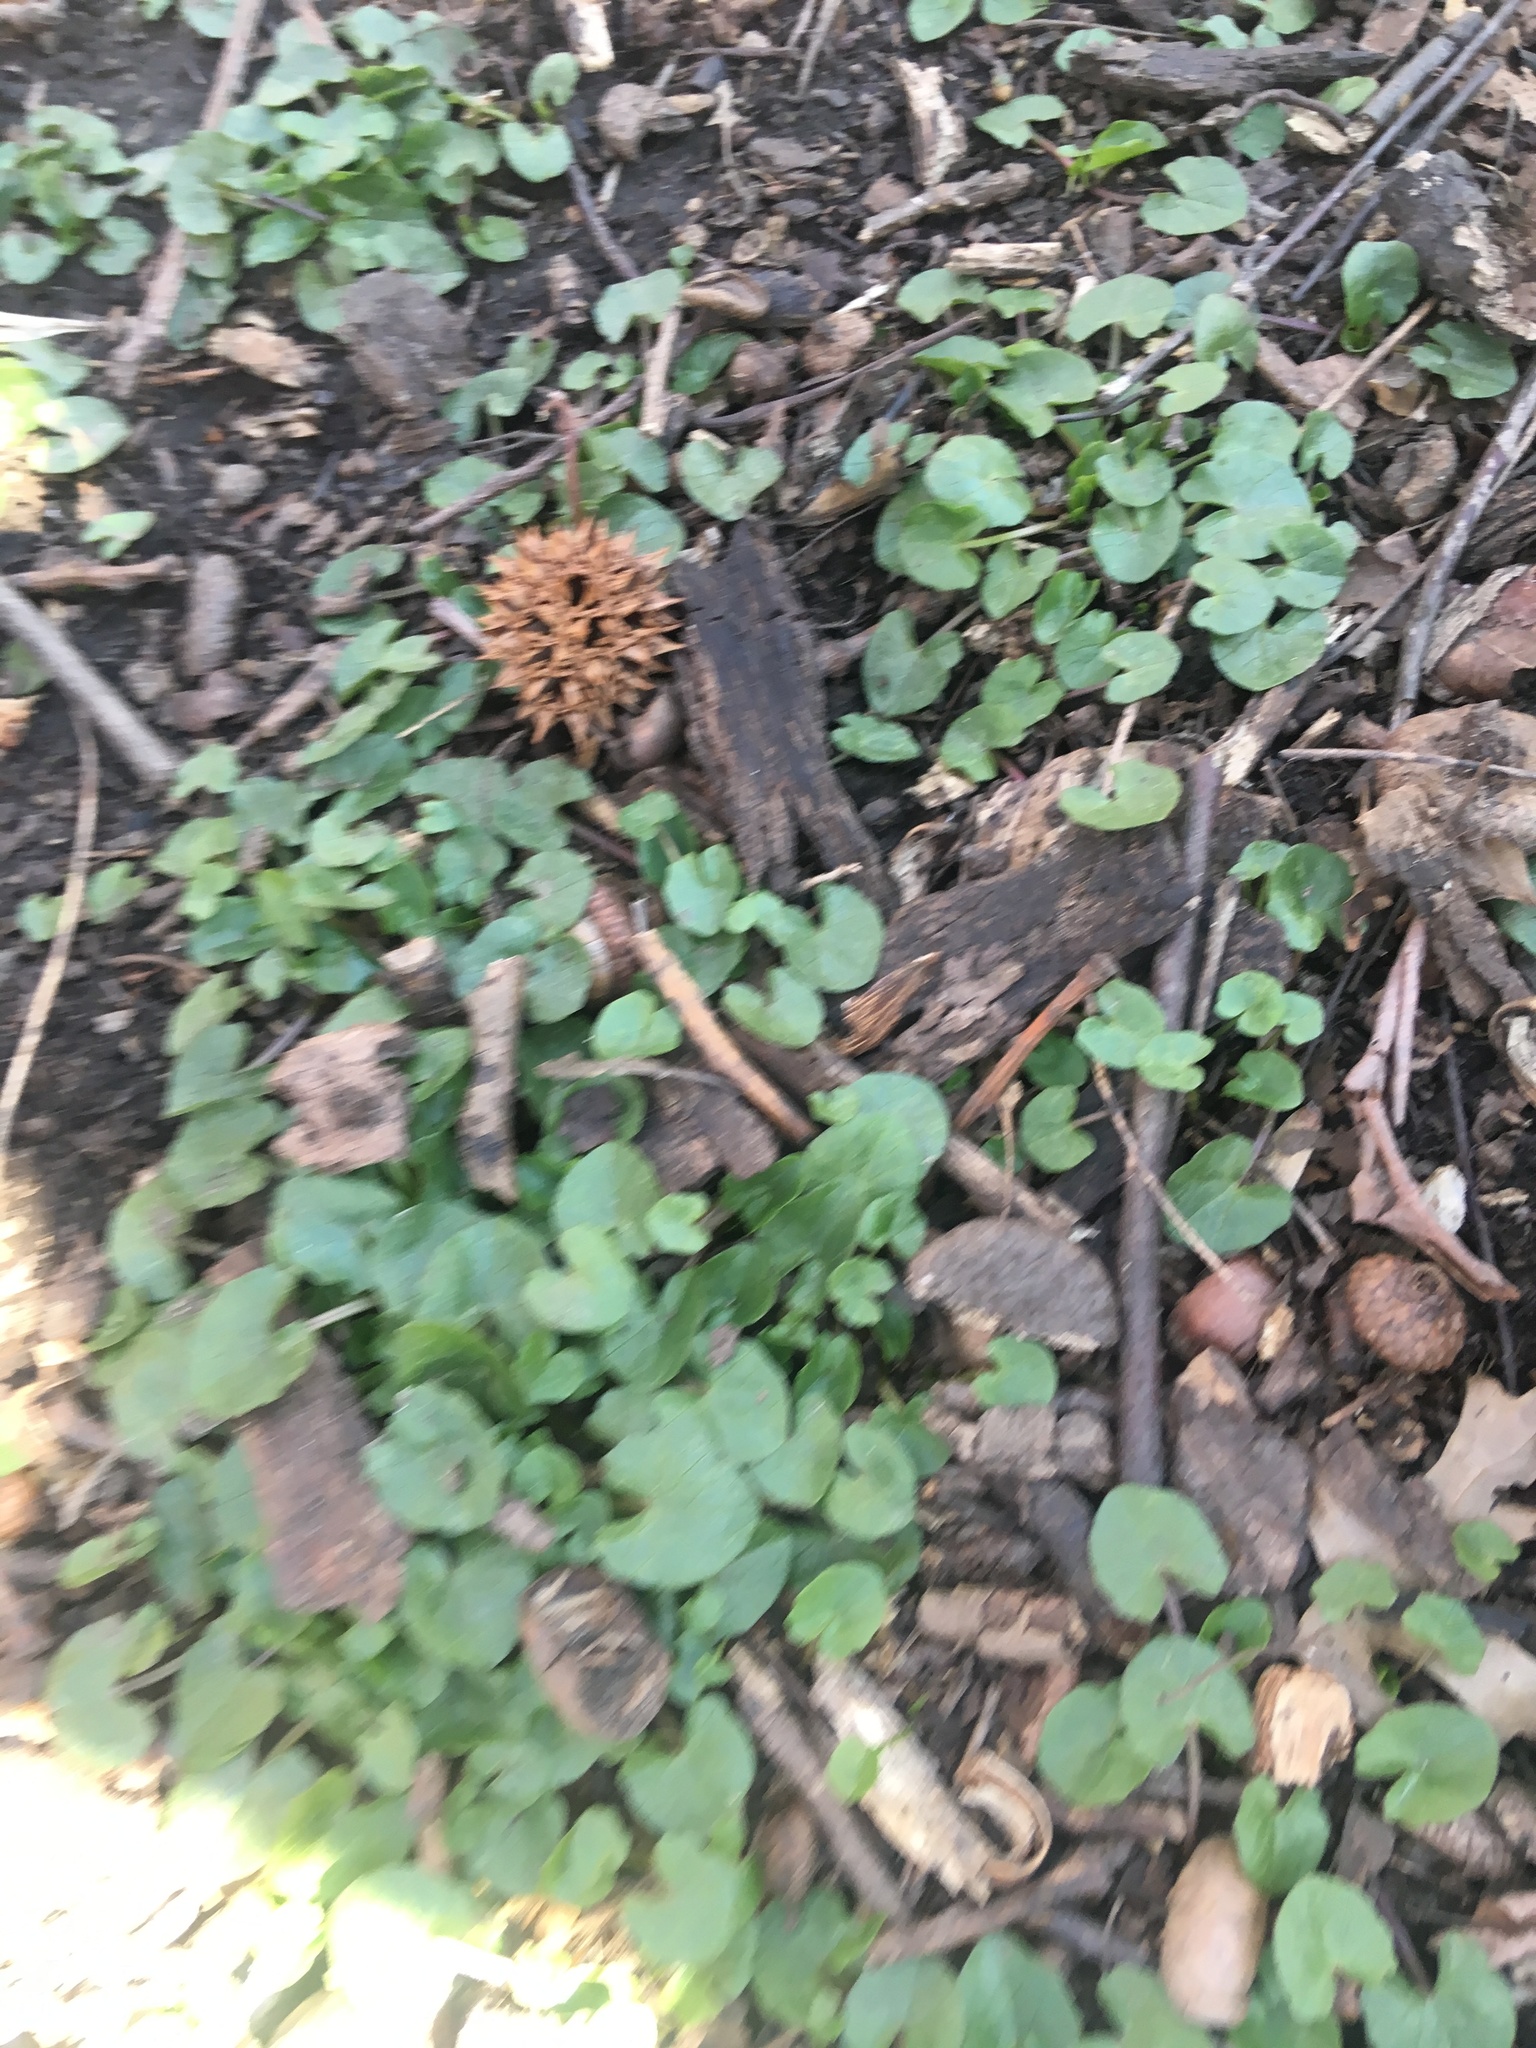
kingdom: Plantae
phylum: Tracheophyta
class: Magnoliopsida
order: Ranunculales
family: Ranunculaceae
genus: Ficaria
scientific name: Ficaria verna
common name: Lesser celandine
